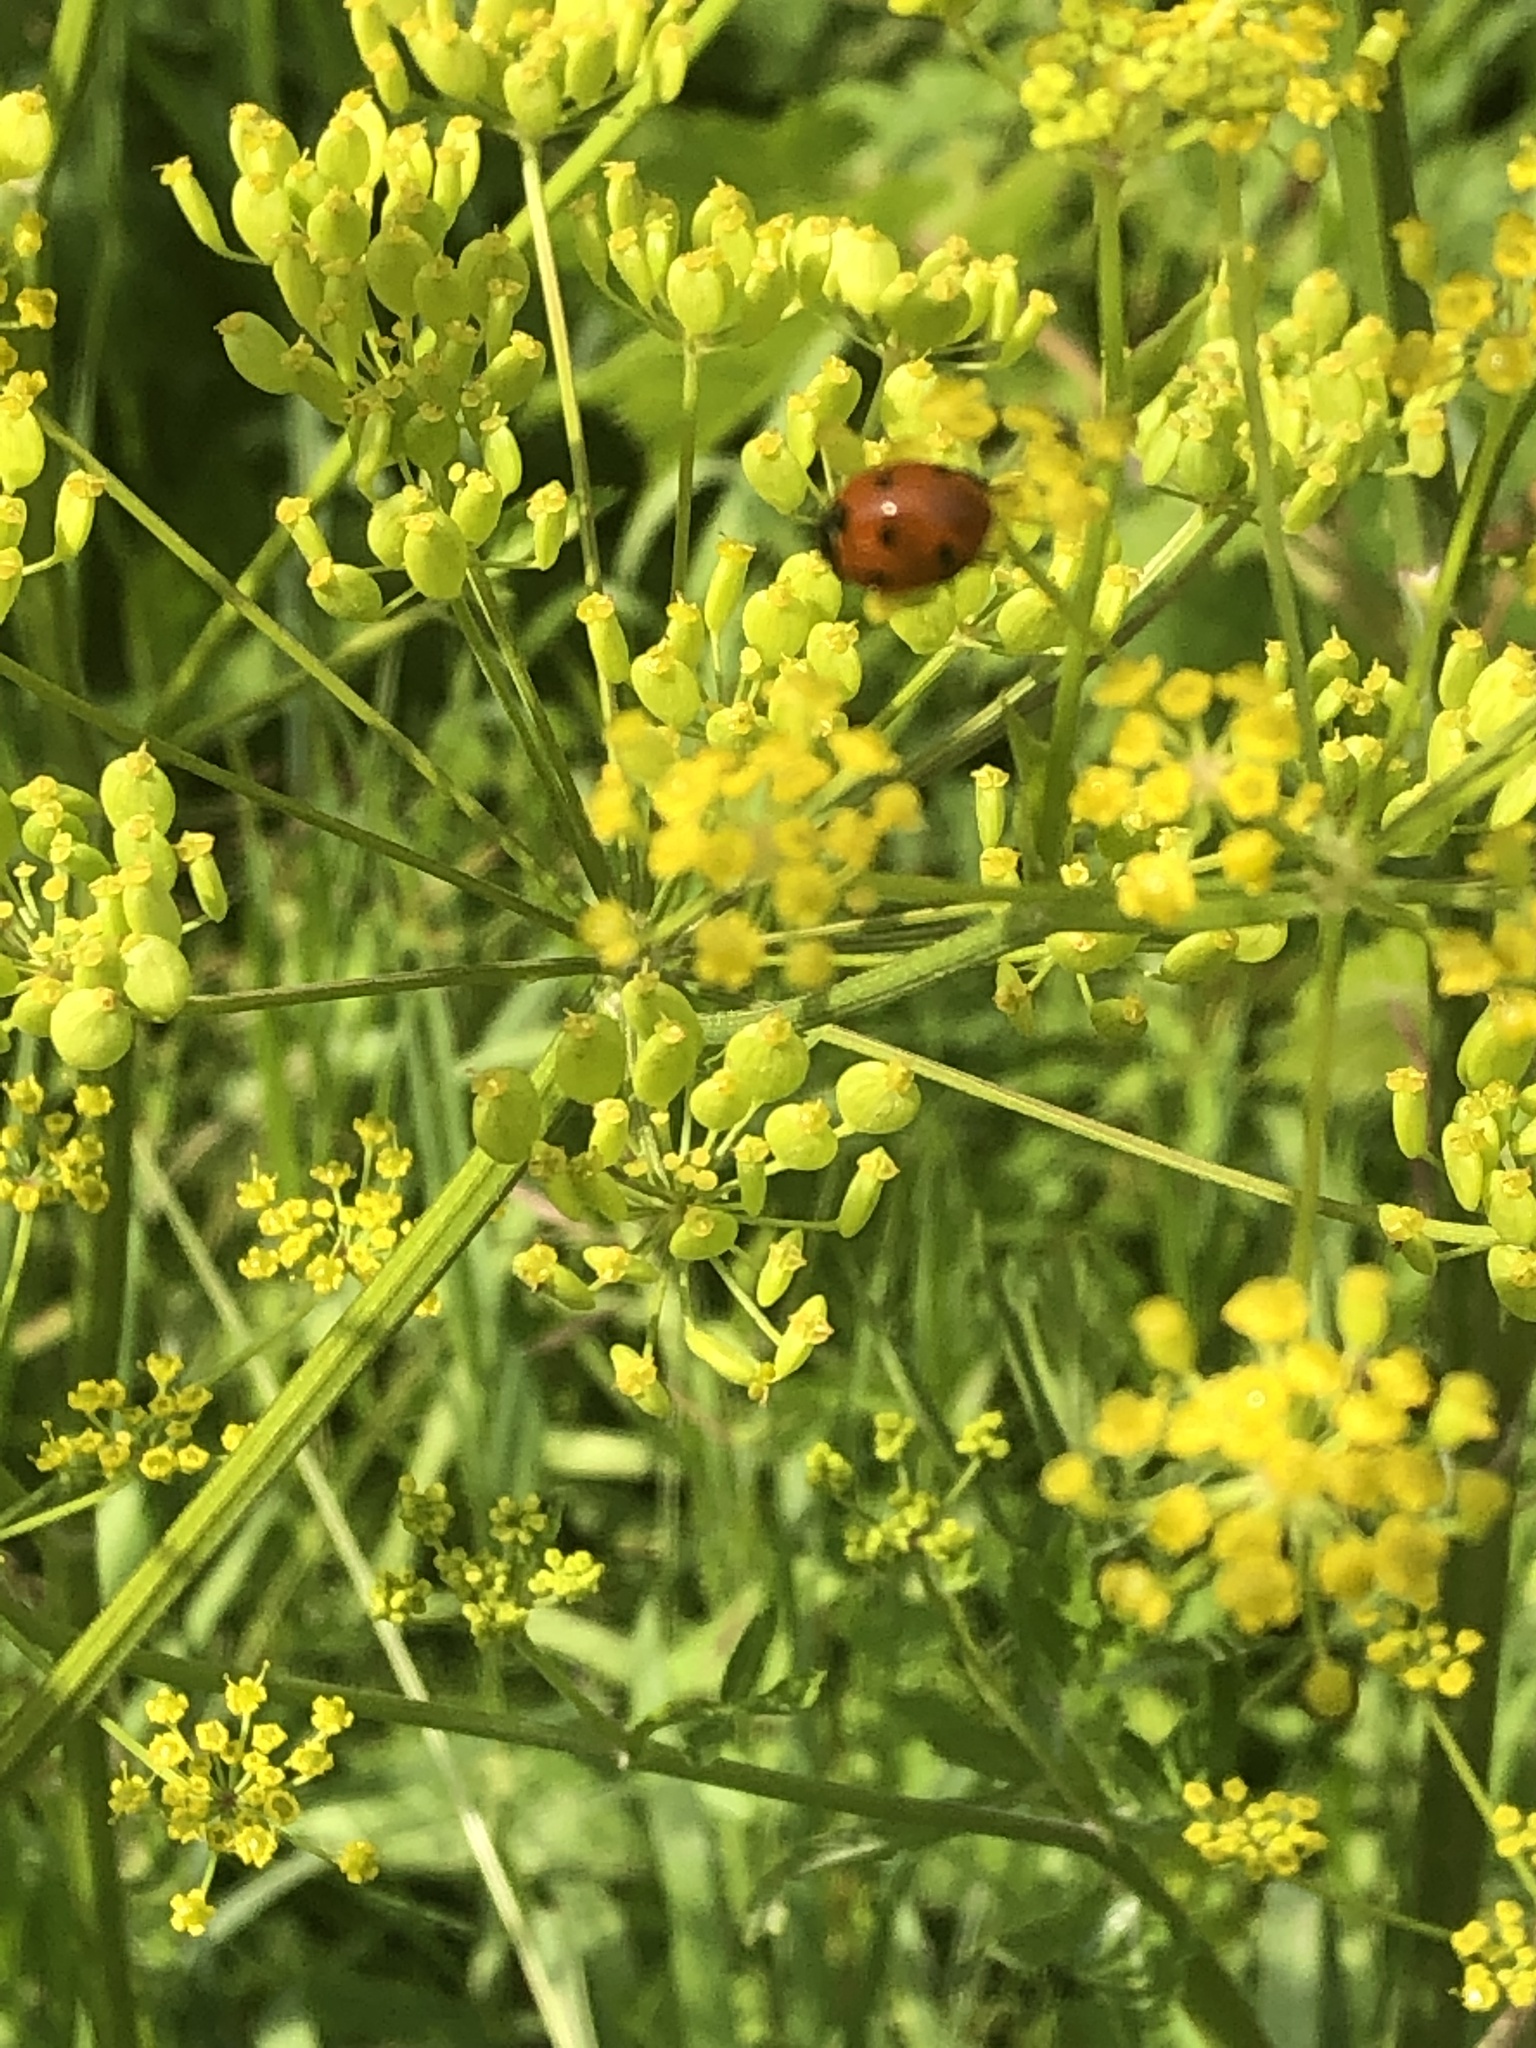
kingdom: Animalia
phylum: Arthropoda
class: Insecta
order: Coleoptera
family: Coccinellidae
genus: Coccinella
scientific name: Coccinella septempunctata
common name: Sevenspotted lady beetle
